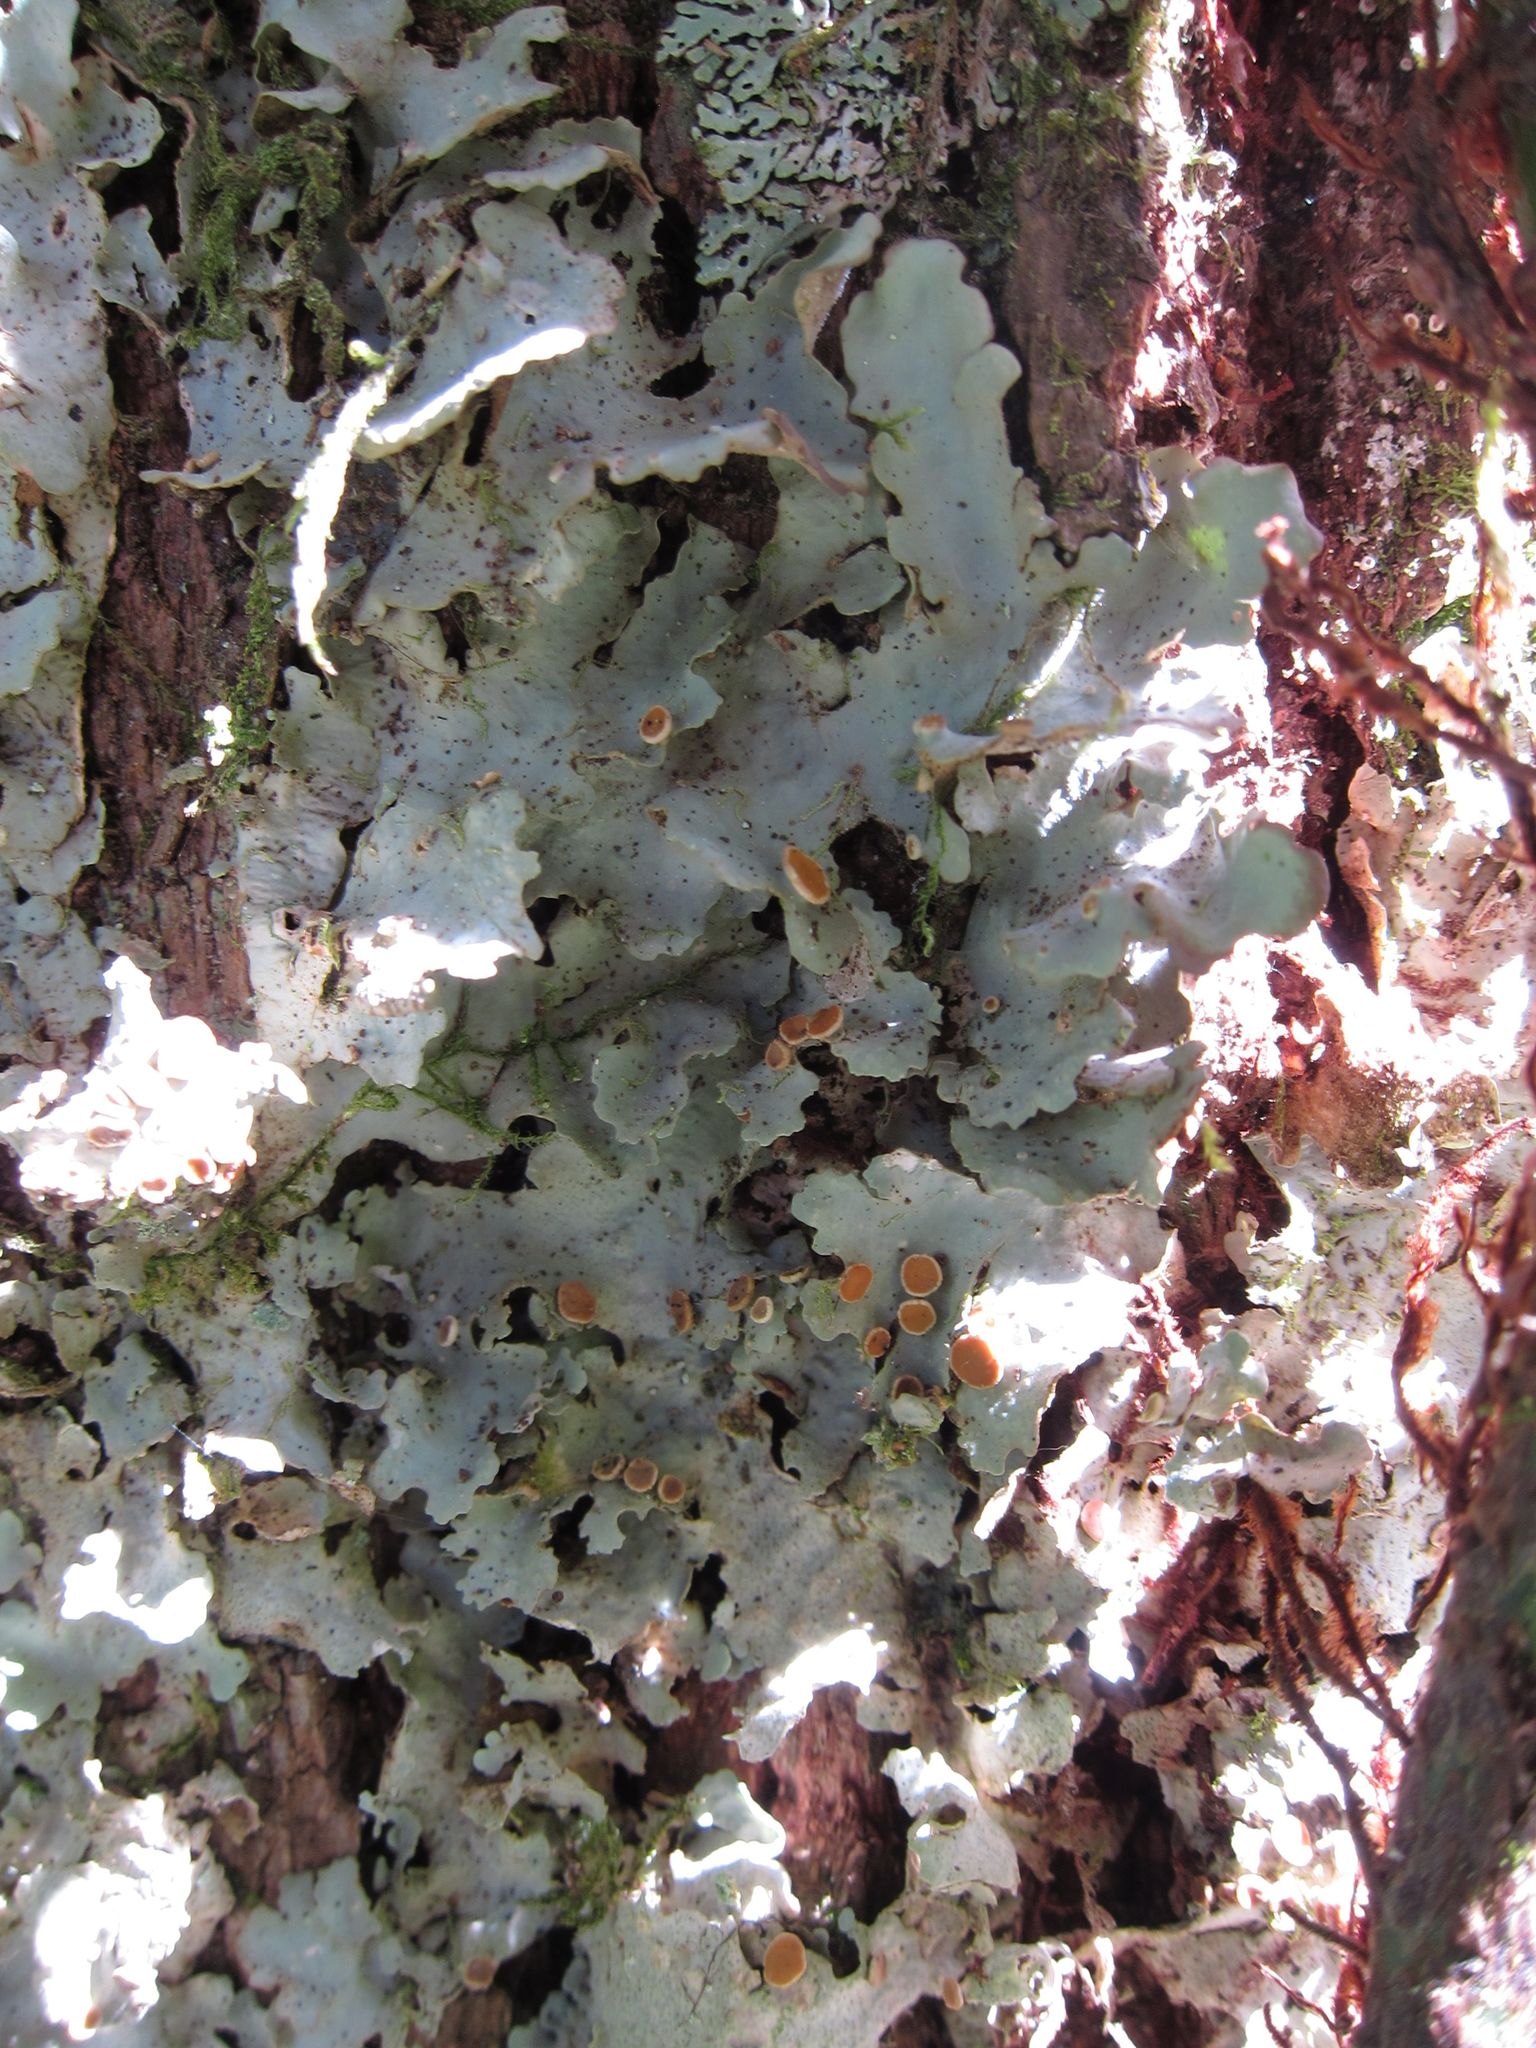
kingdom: Fungi
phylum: Ascomycota
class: Lecanoromycetes
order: Peltigerales
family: Lobariaceae
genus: Sticta
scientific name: Sticta subcaperata
